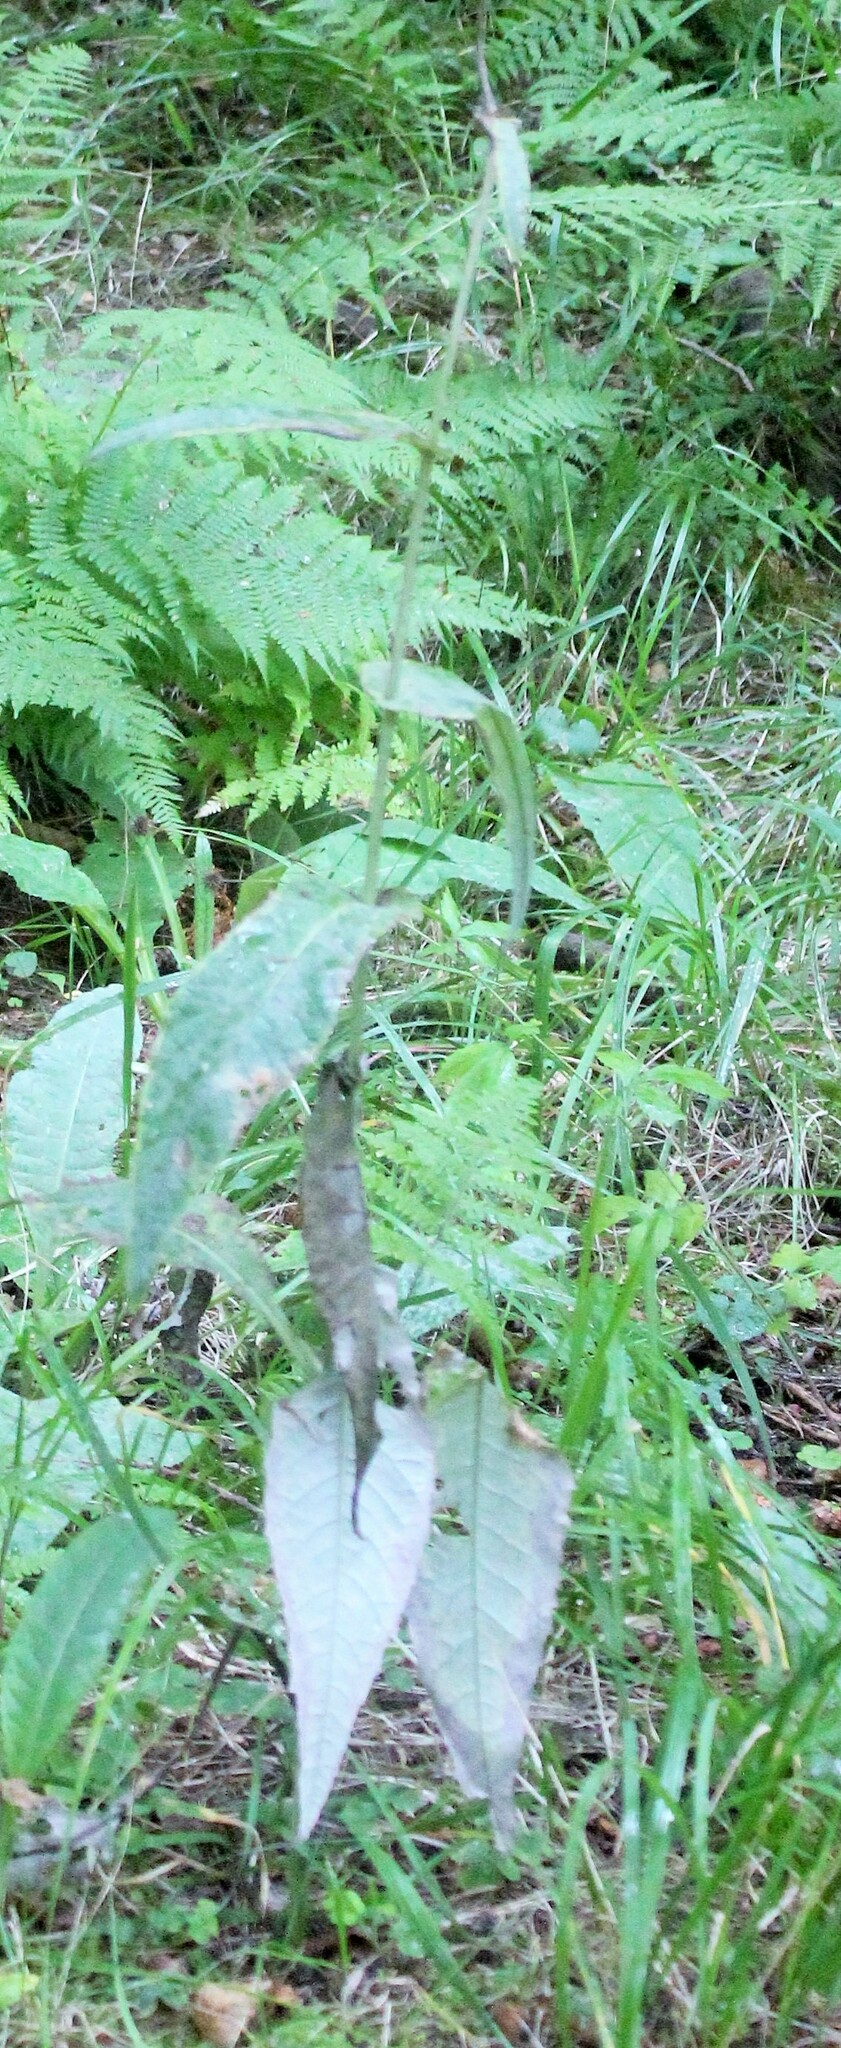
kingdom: Plantae
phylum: Tracheophyta
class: Magnoliopsida
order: Asterales
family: Asteraceae
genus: Crepis
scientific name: Crepis paludosa
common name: Marsh hawk's-beard
